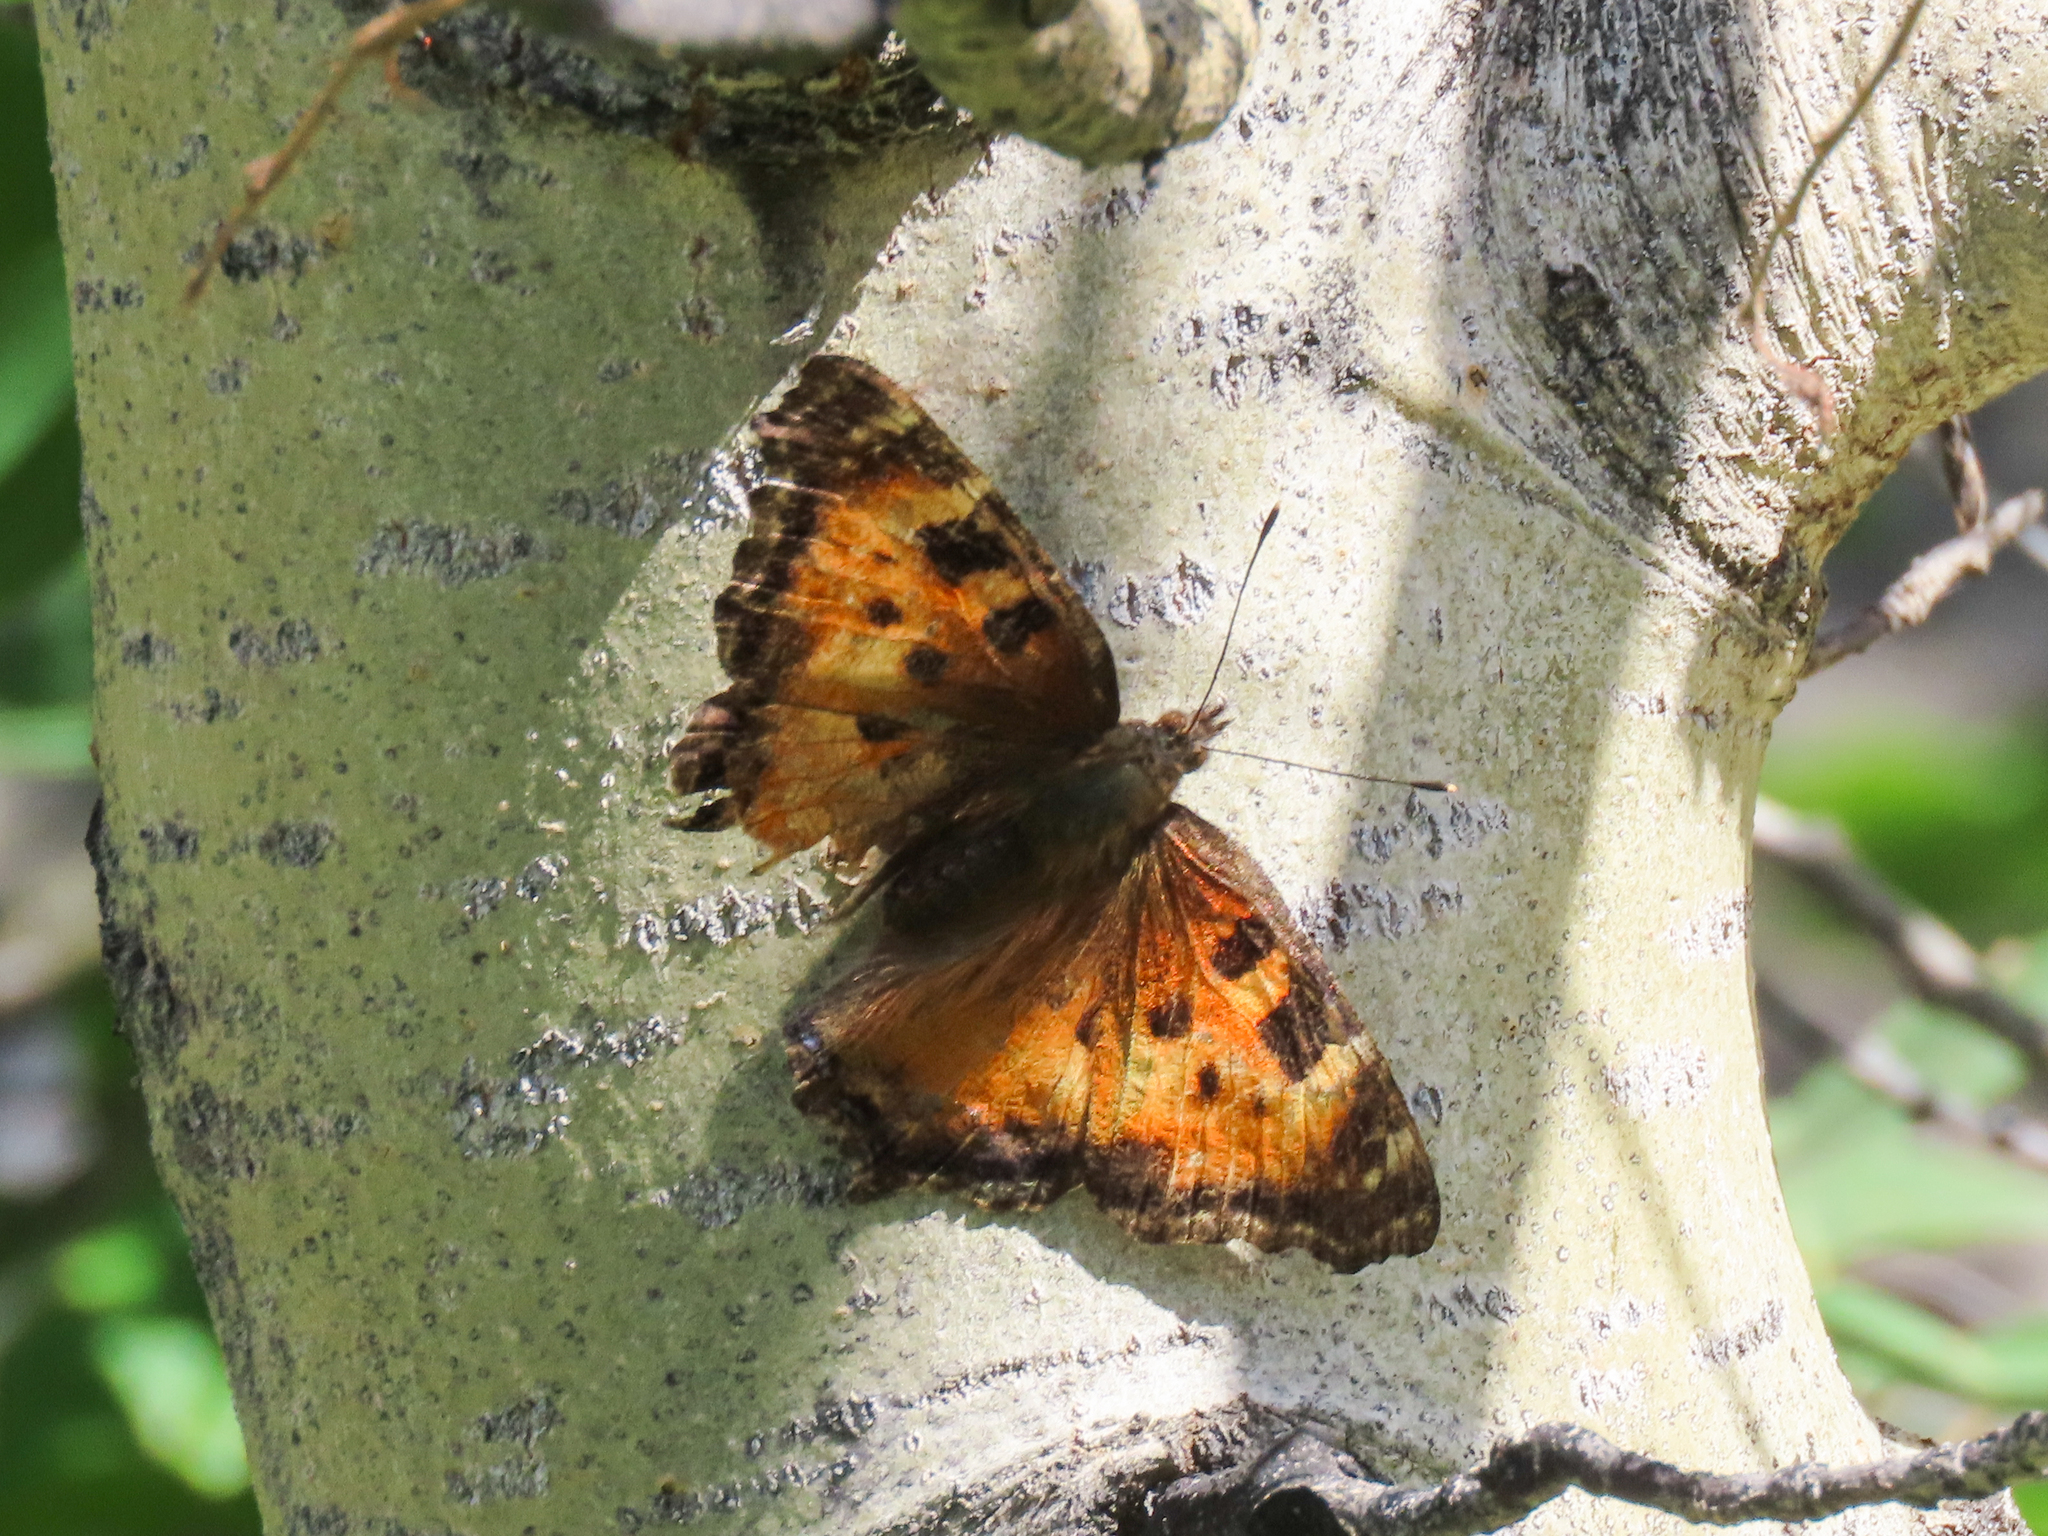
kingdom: Animalia
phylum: Arthropoda
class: Insecta
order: Lepidoptera
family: Nymphalidae
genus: Nymphalis
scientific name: Nymphalis californica
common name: California tortoiseshell
